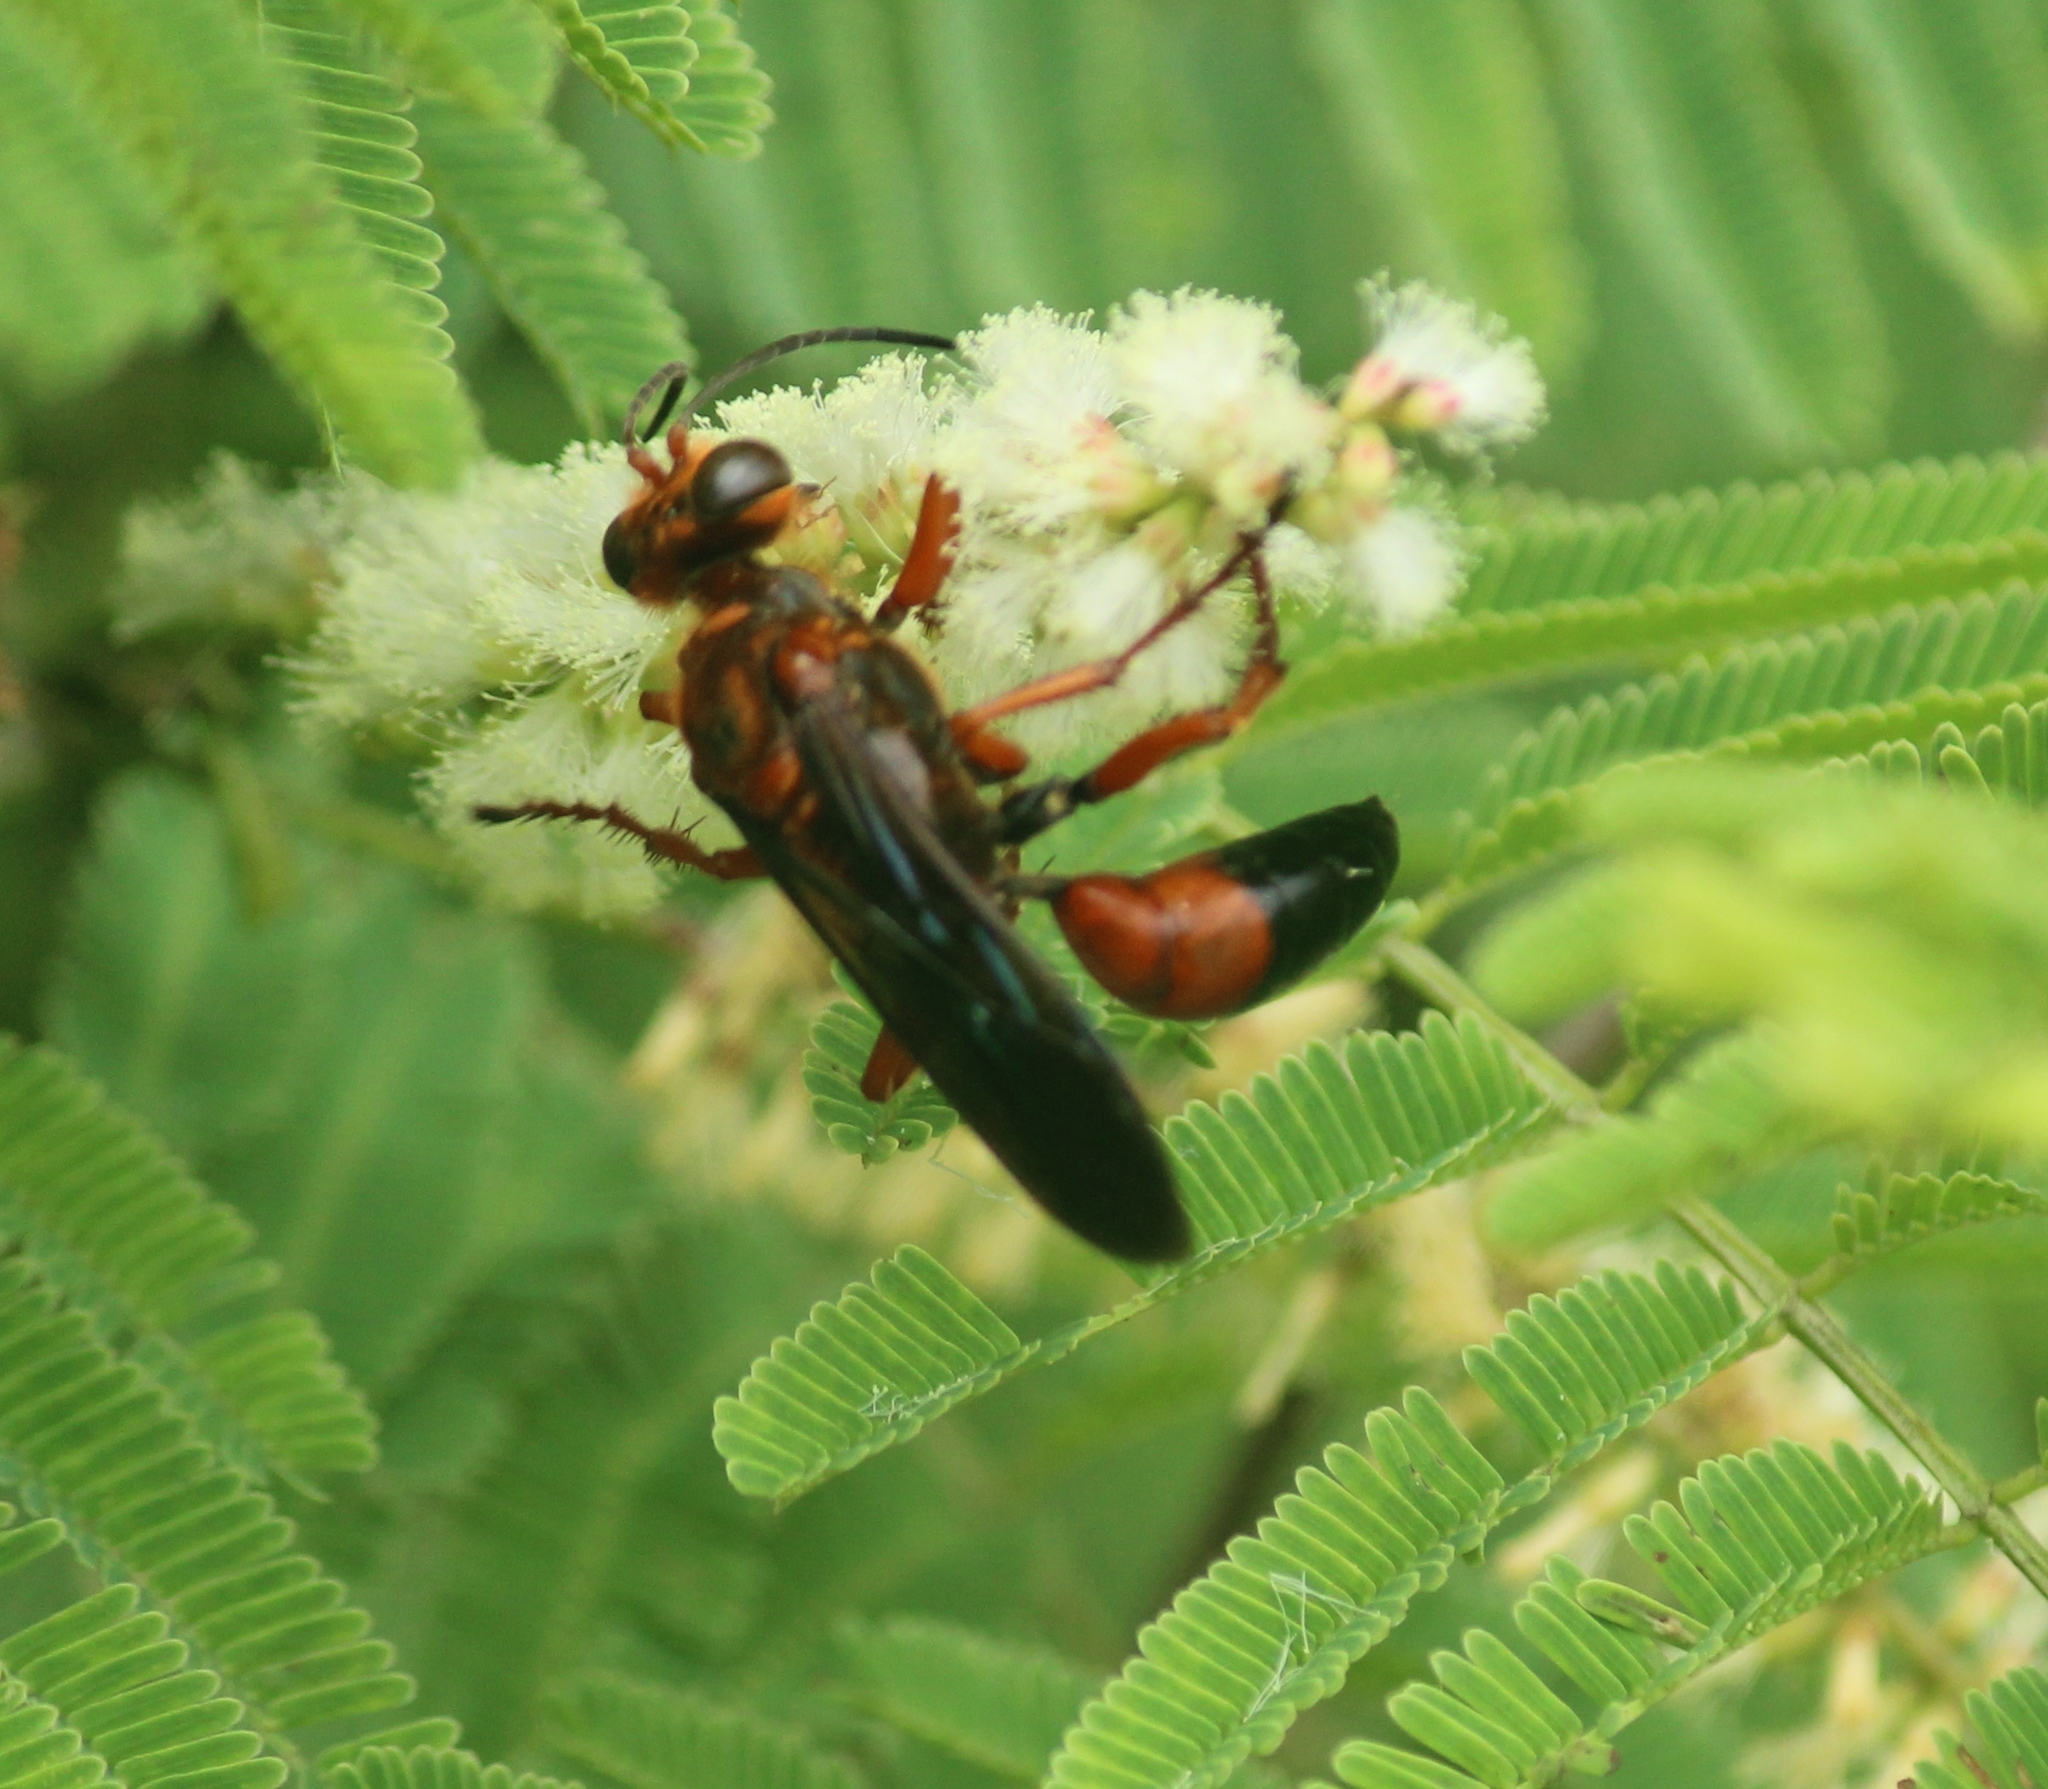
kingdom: Animalia
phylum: Arthropoda
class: Insecta
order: Hymenoptera
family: Sphecidae
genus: Sphex
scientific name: Sphex sericeus
